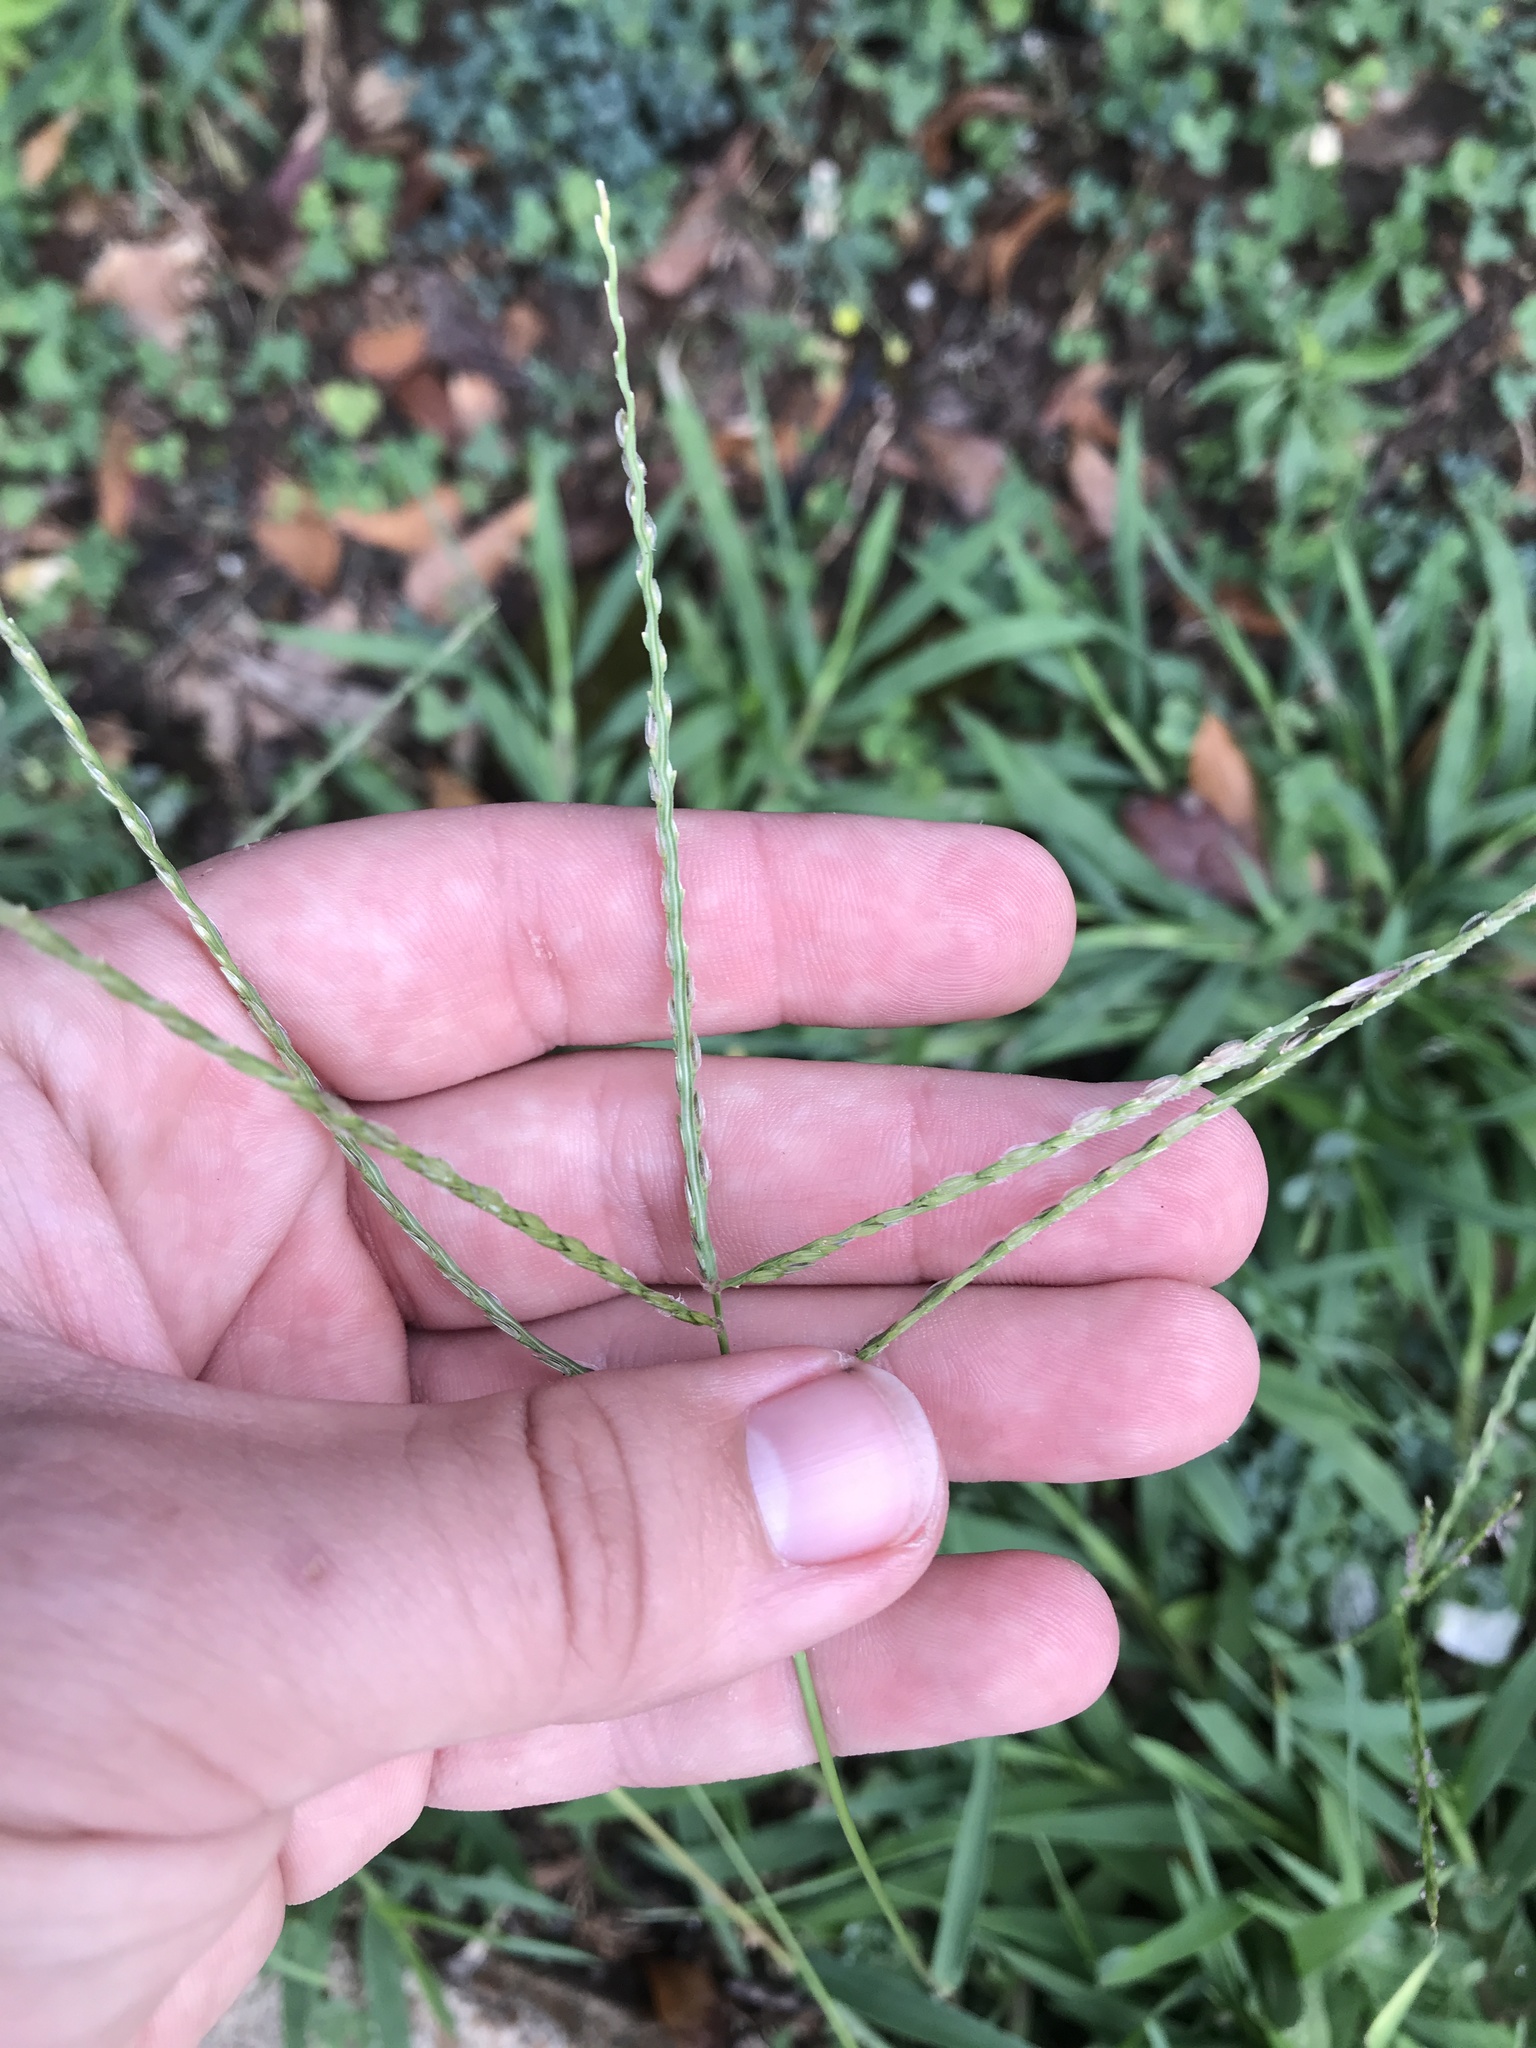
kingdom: Plantae
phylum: Tracheophyta
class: Liliopsida
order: Poales
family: Poaceae
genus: Digitaria
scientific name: Digitaria sanguinalis
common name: Hairy crabgrass
